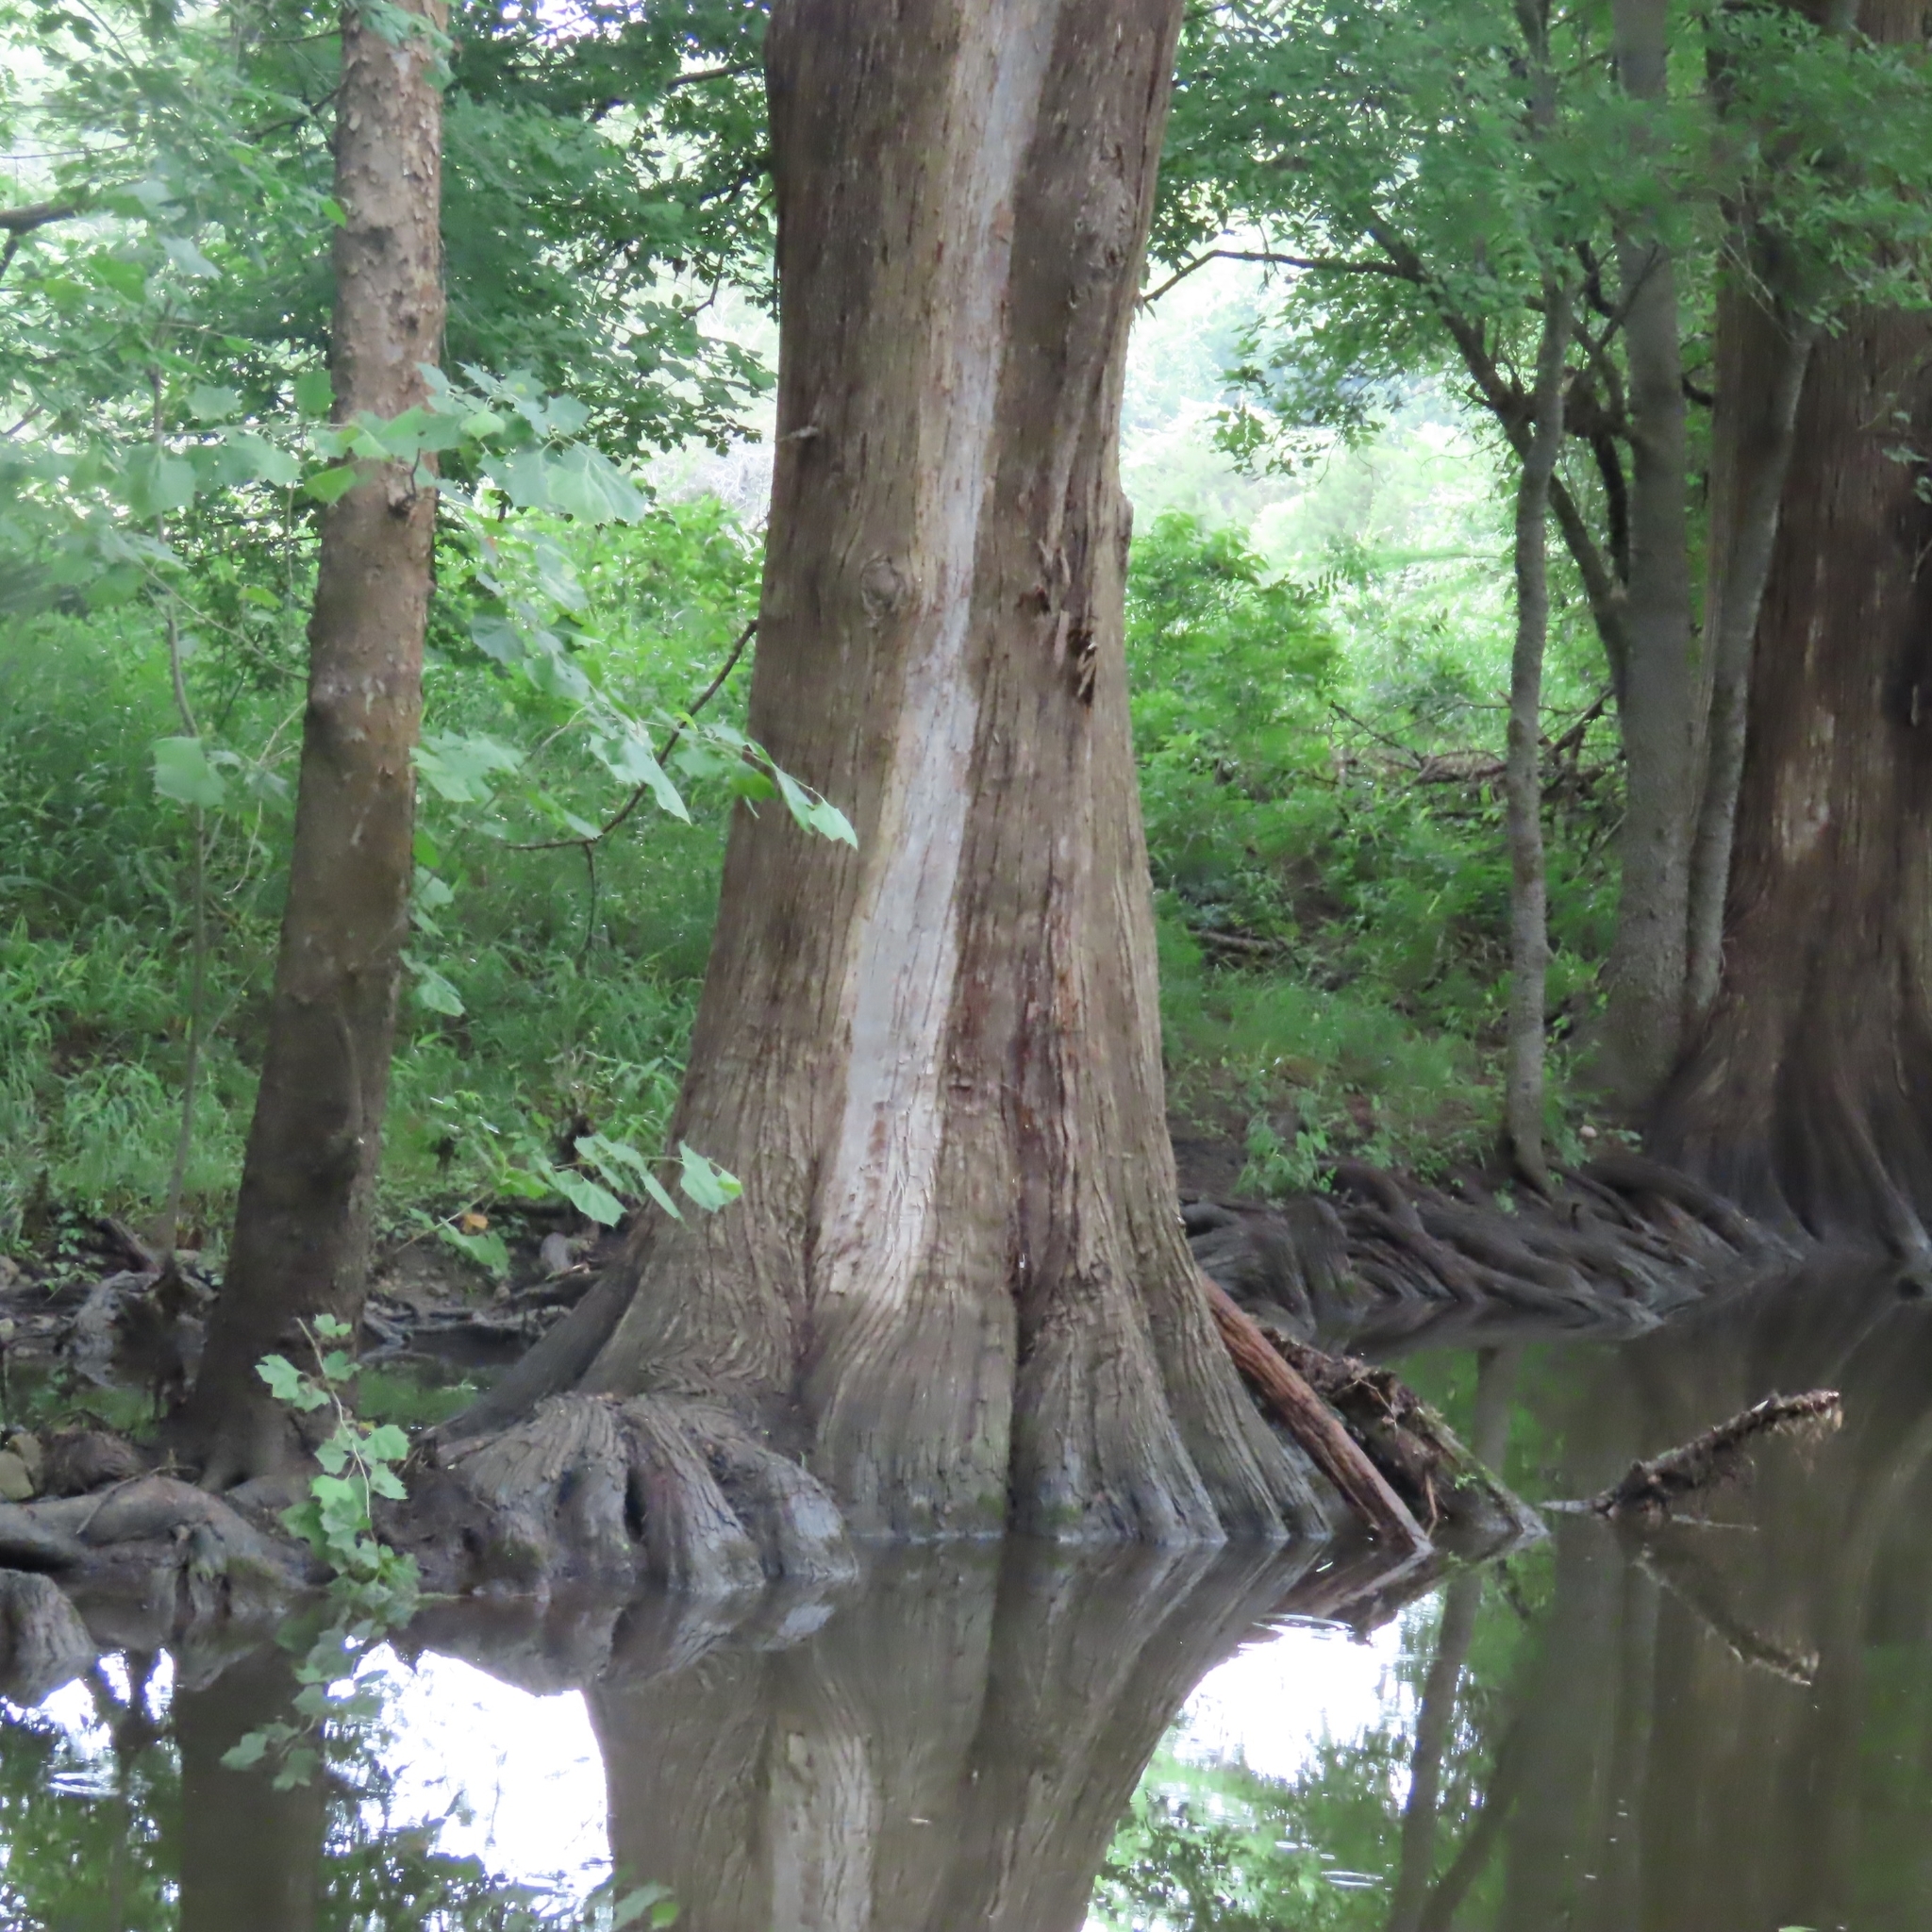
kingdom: Plantae
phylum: Tracheophyta
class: Pinopsida
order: Pinales
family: Cupressaceae
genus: Taxodium
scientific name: Taxodium distichum
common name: Bald cypress
